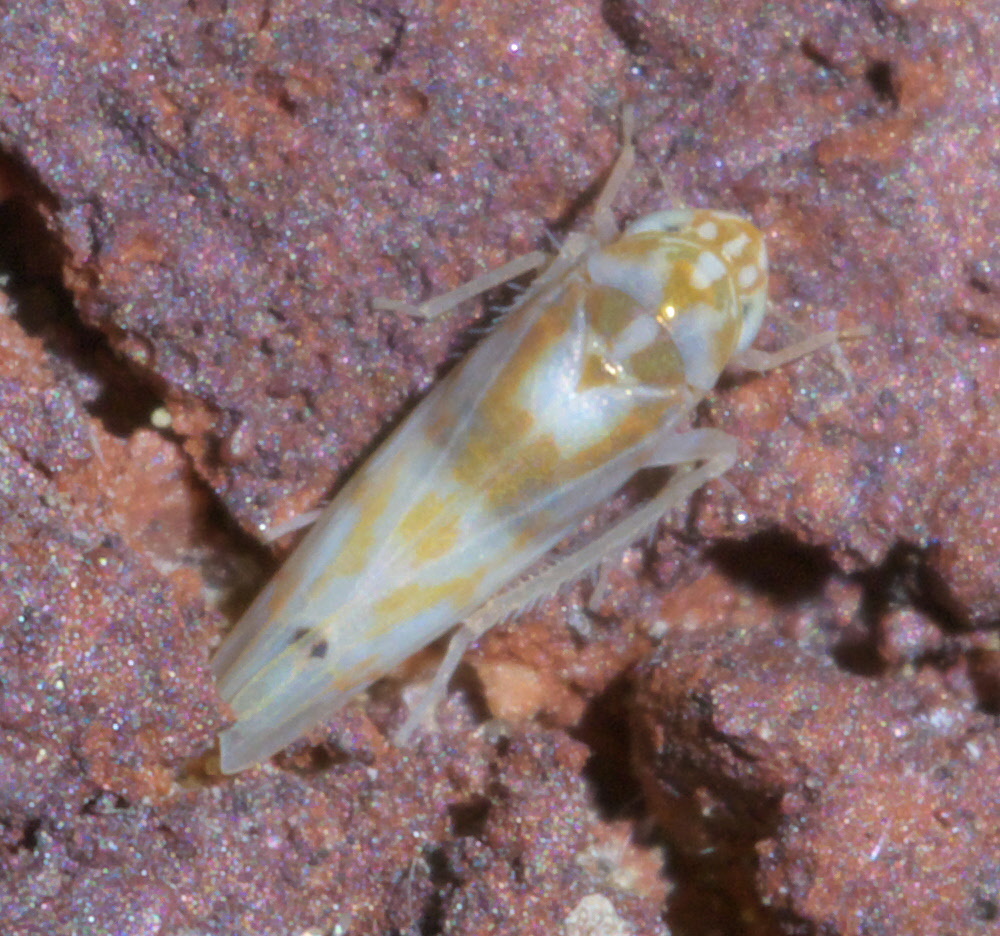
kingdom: Animalia
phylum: Arthropoda
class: Insecta
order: Hemiptera
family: Cicadellidae
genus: Eratoneura
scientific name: Eratoneura affinis
